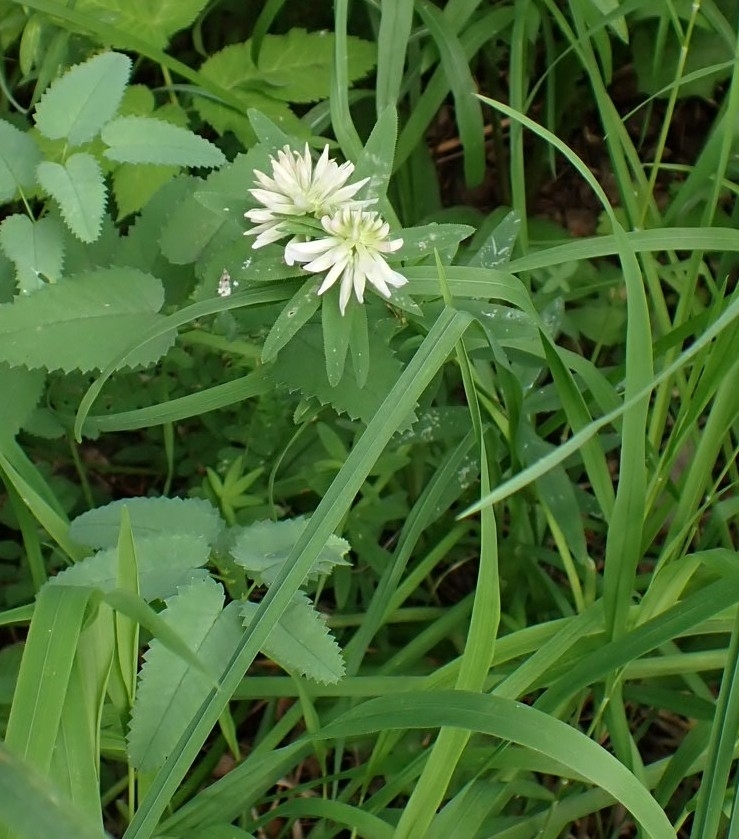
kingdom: Plantae
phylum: Tracheophyta
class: Magnoliopsida
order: Fabales
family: Fabaceae
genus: Trifolium
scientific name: Trifolium lupinaster
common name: Lupine clover
